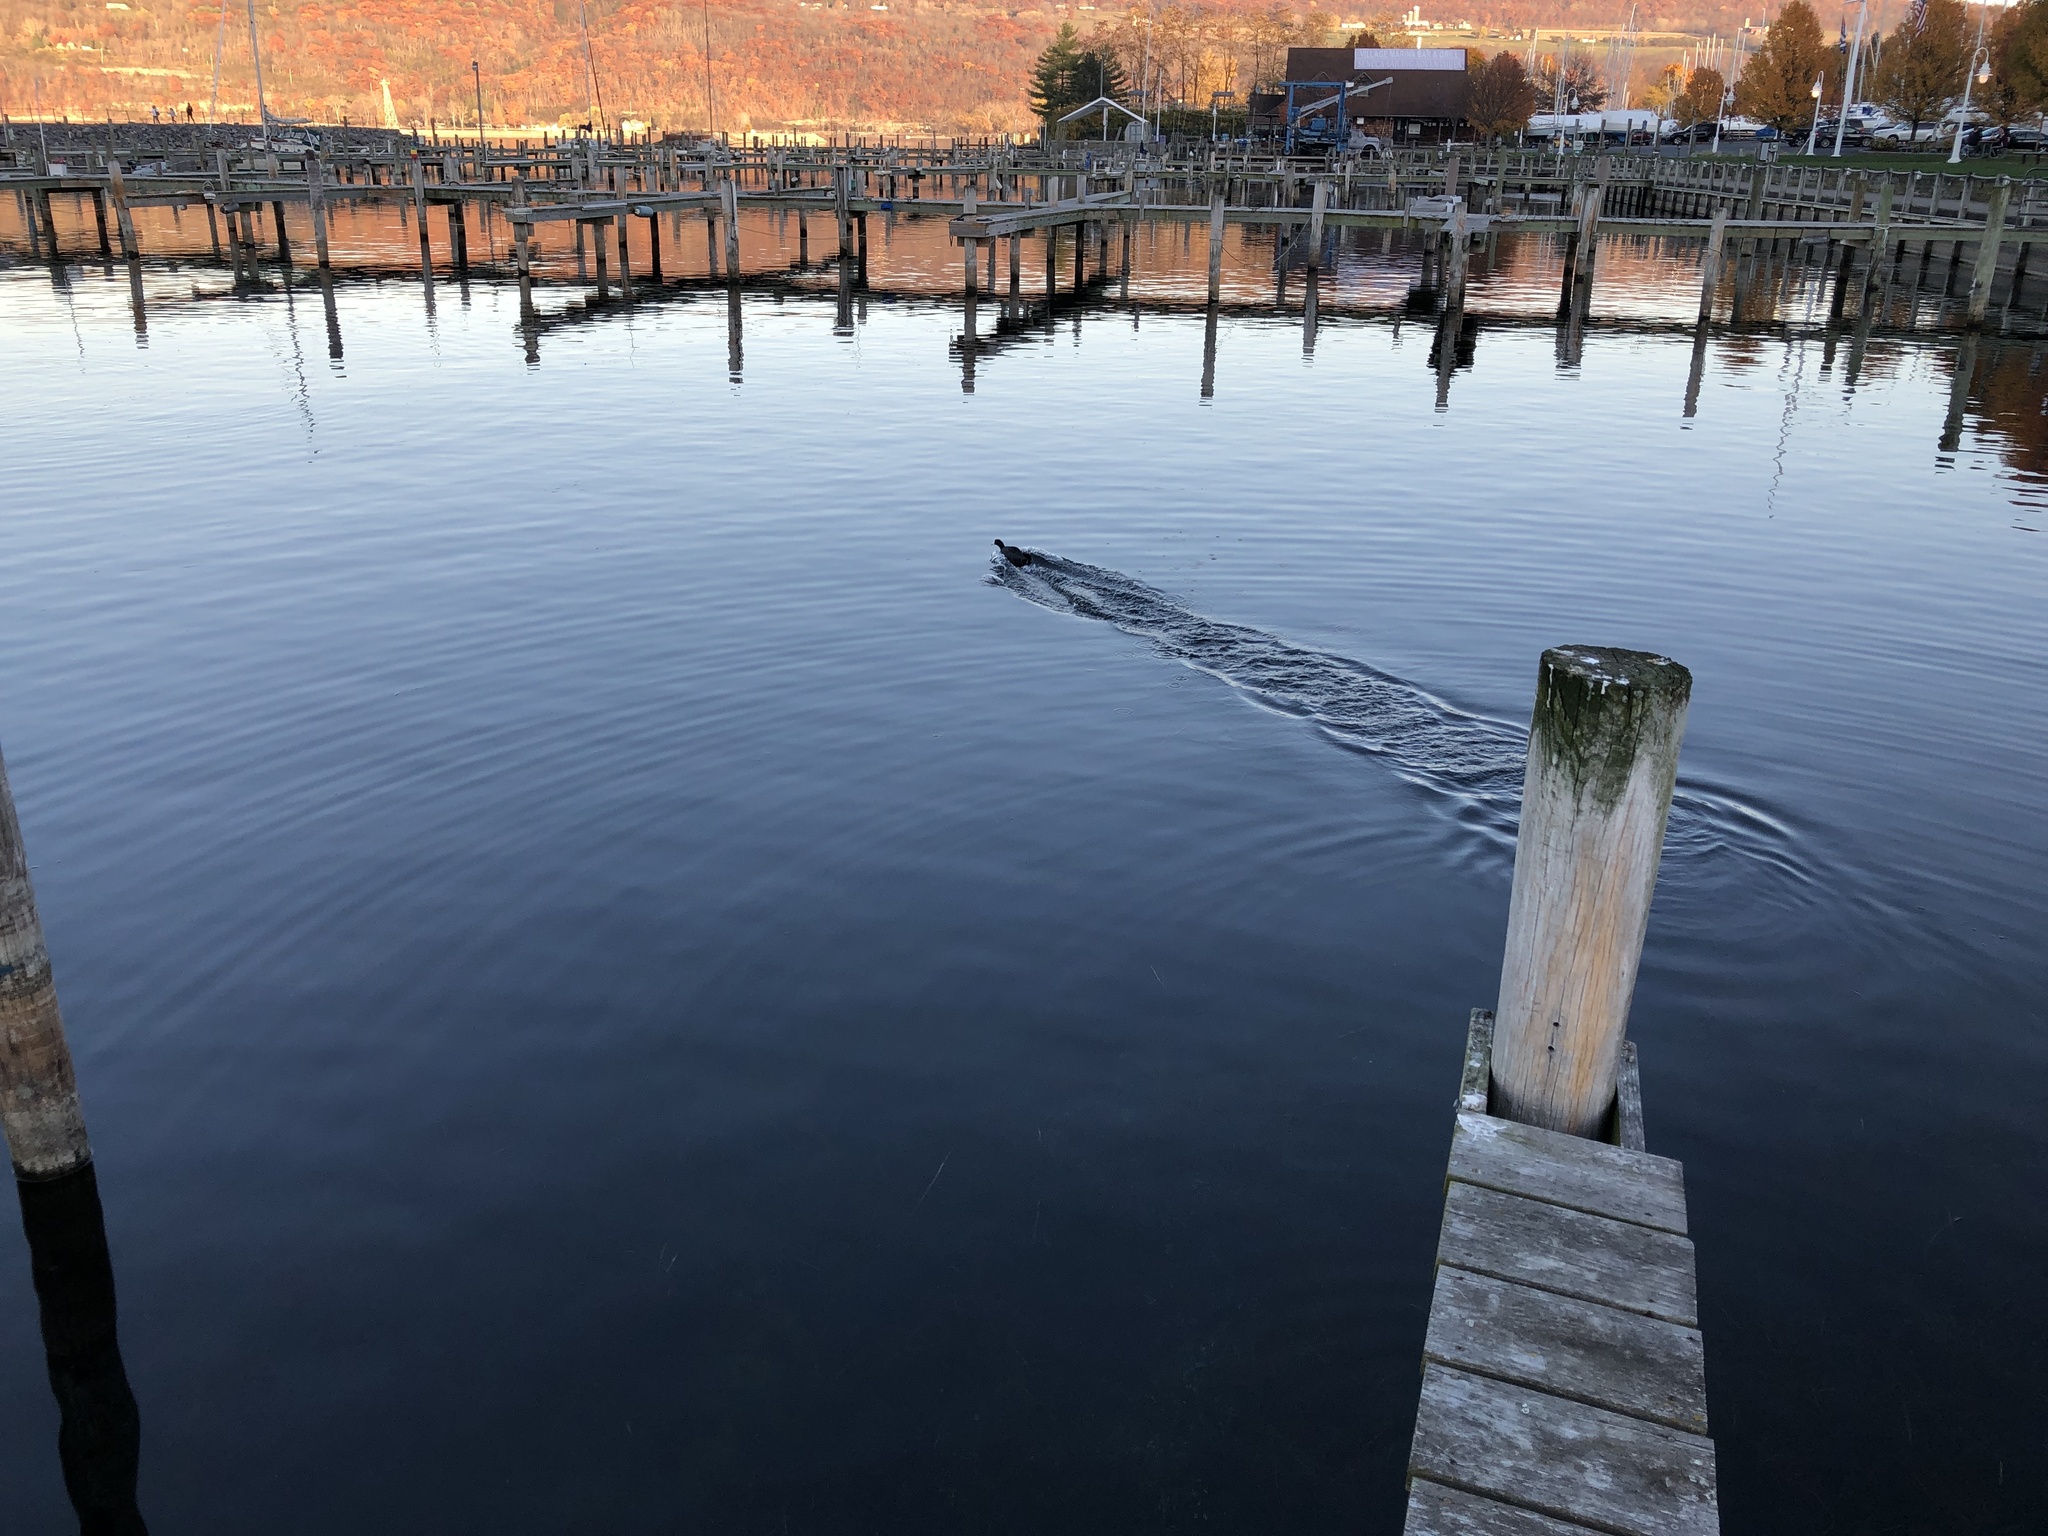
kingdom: Animalia
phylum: Chordata
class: Aves
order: Gruiformes
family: Rallidae
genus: Fulica
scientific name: Fulica americana
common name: American coot
